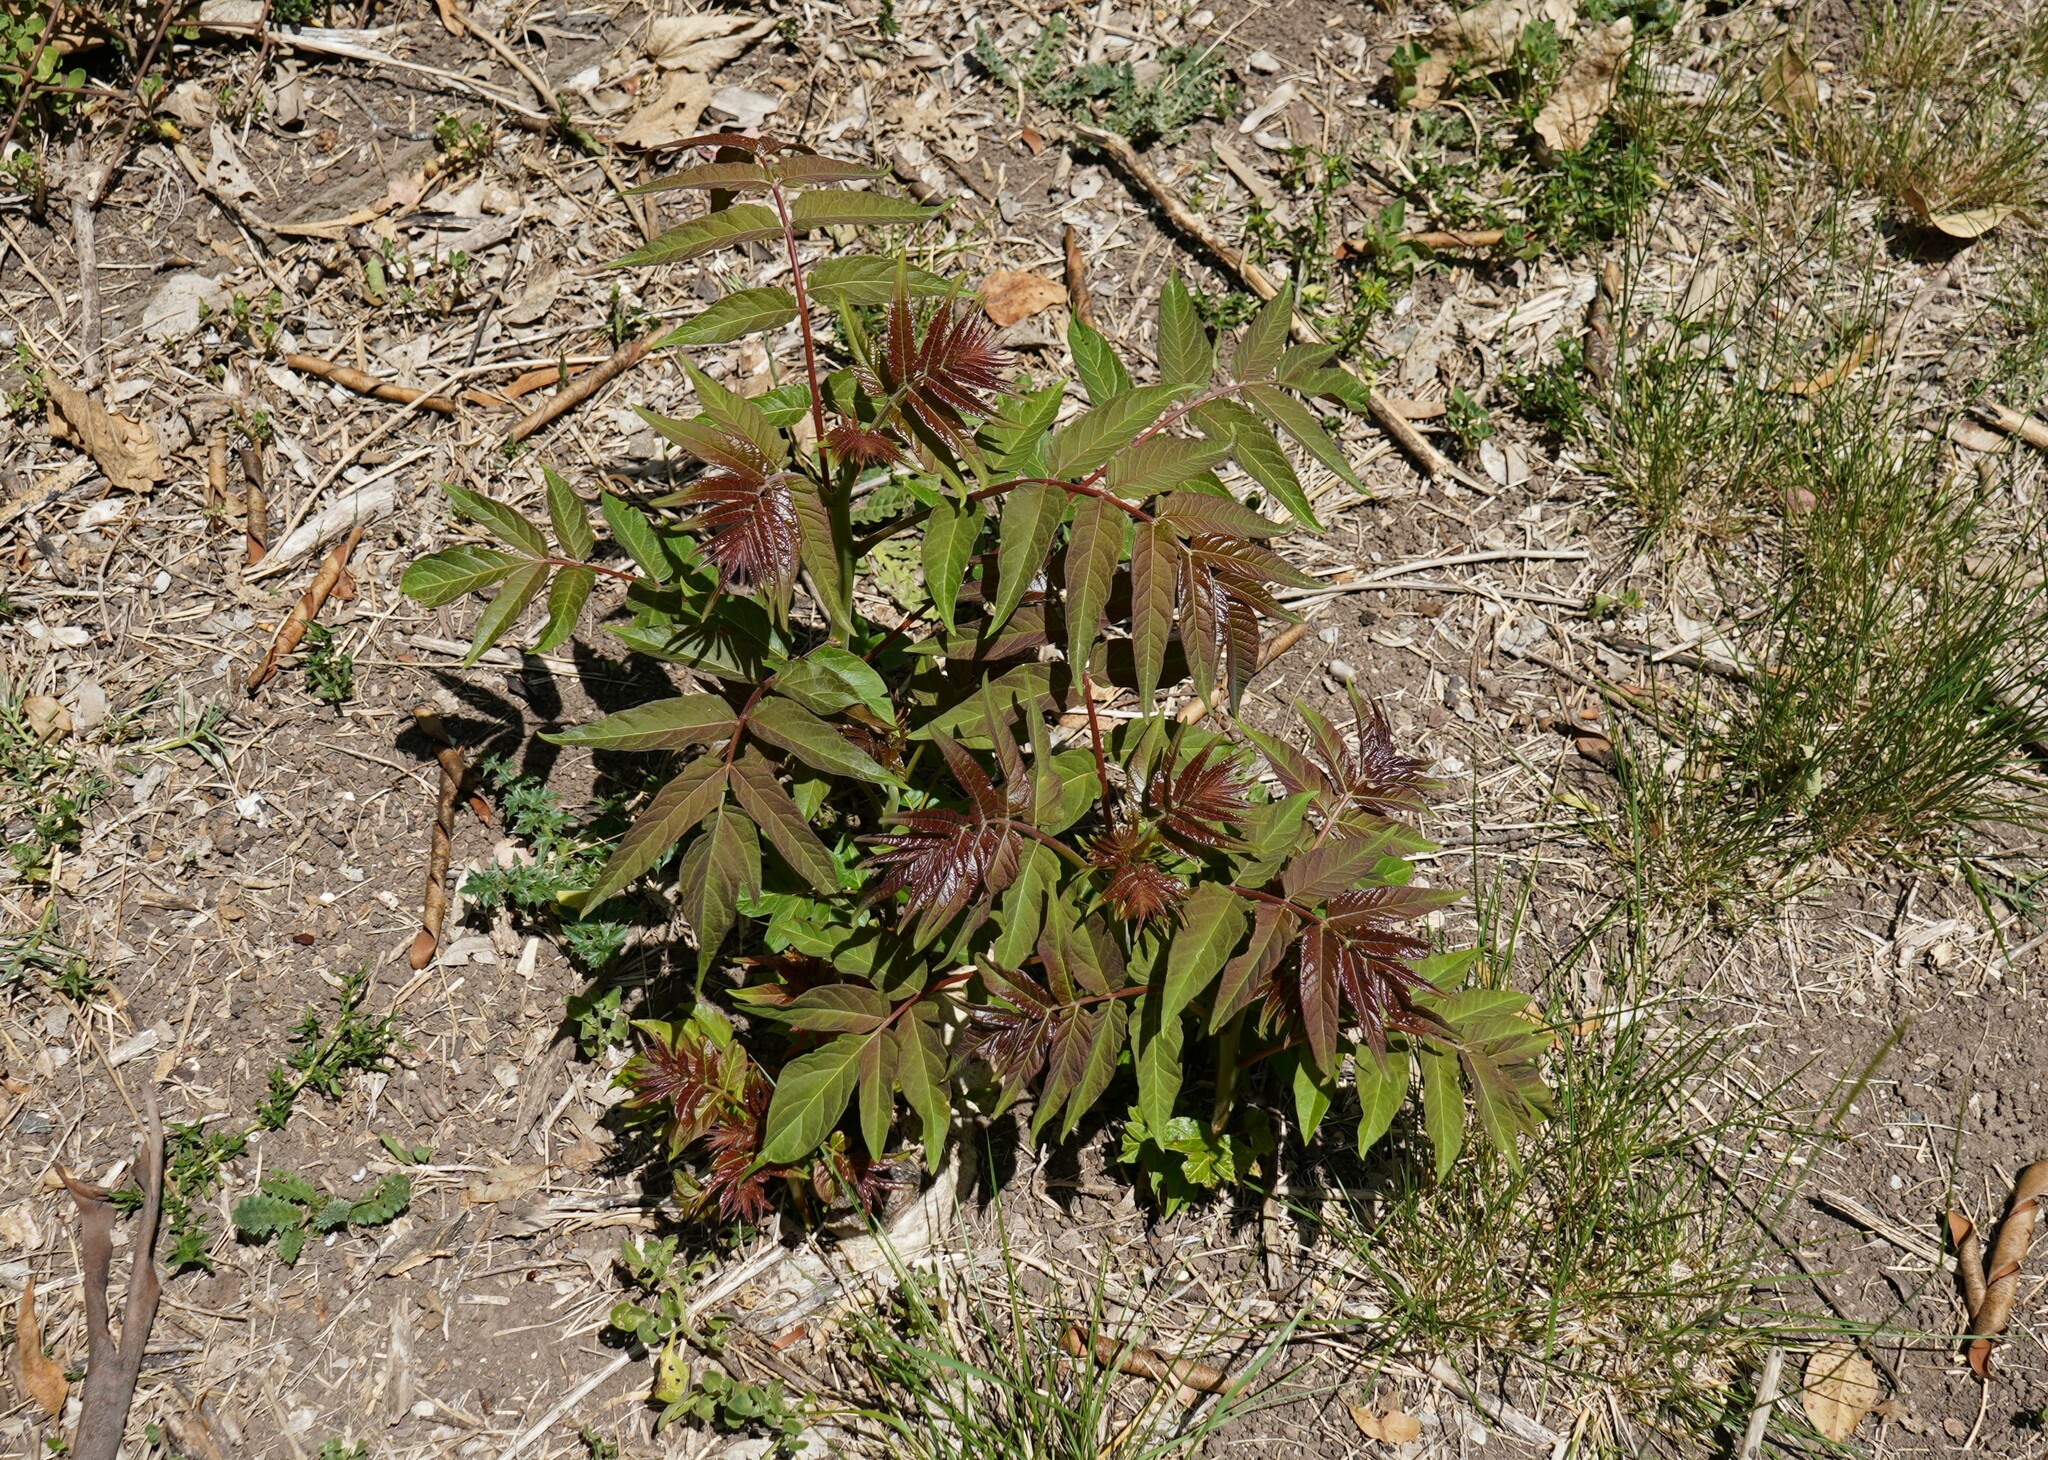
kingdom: Plantae
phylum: Tracheophyta
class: Magnoliopsida
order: Sapindales
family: Simaroubaceae
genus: Ailanthus
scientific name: Ailanthus altissima
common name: Tree-of-heaven
